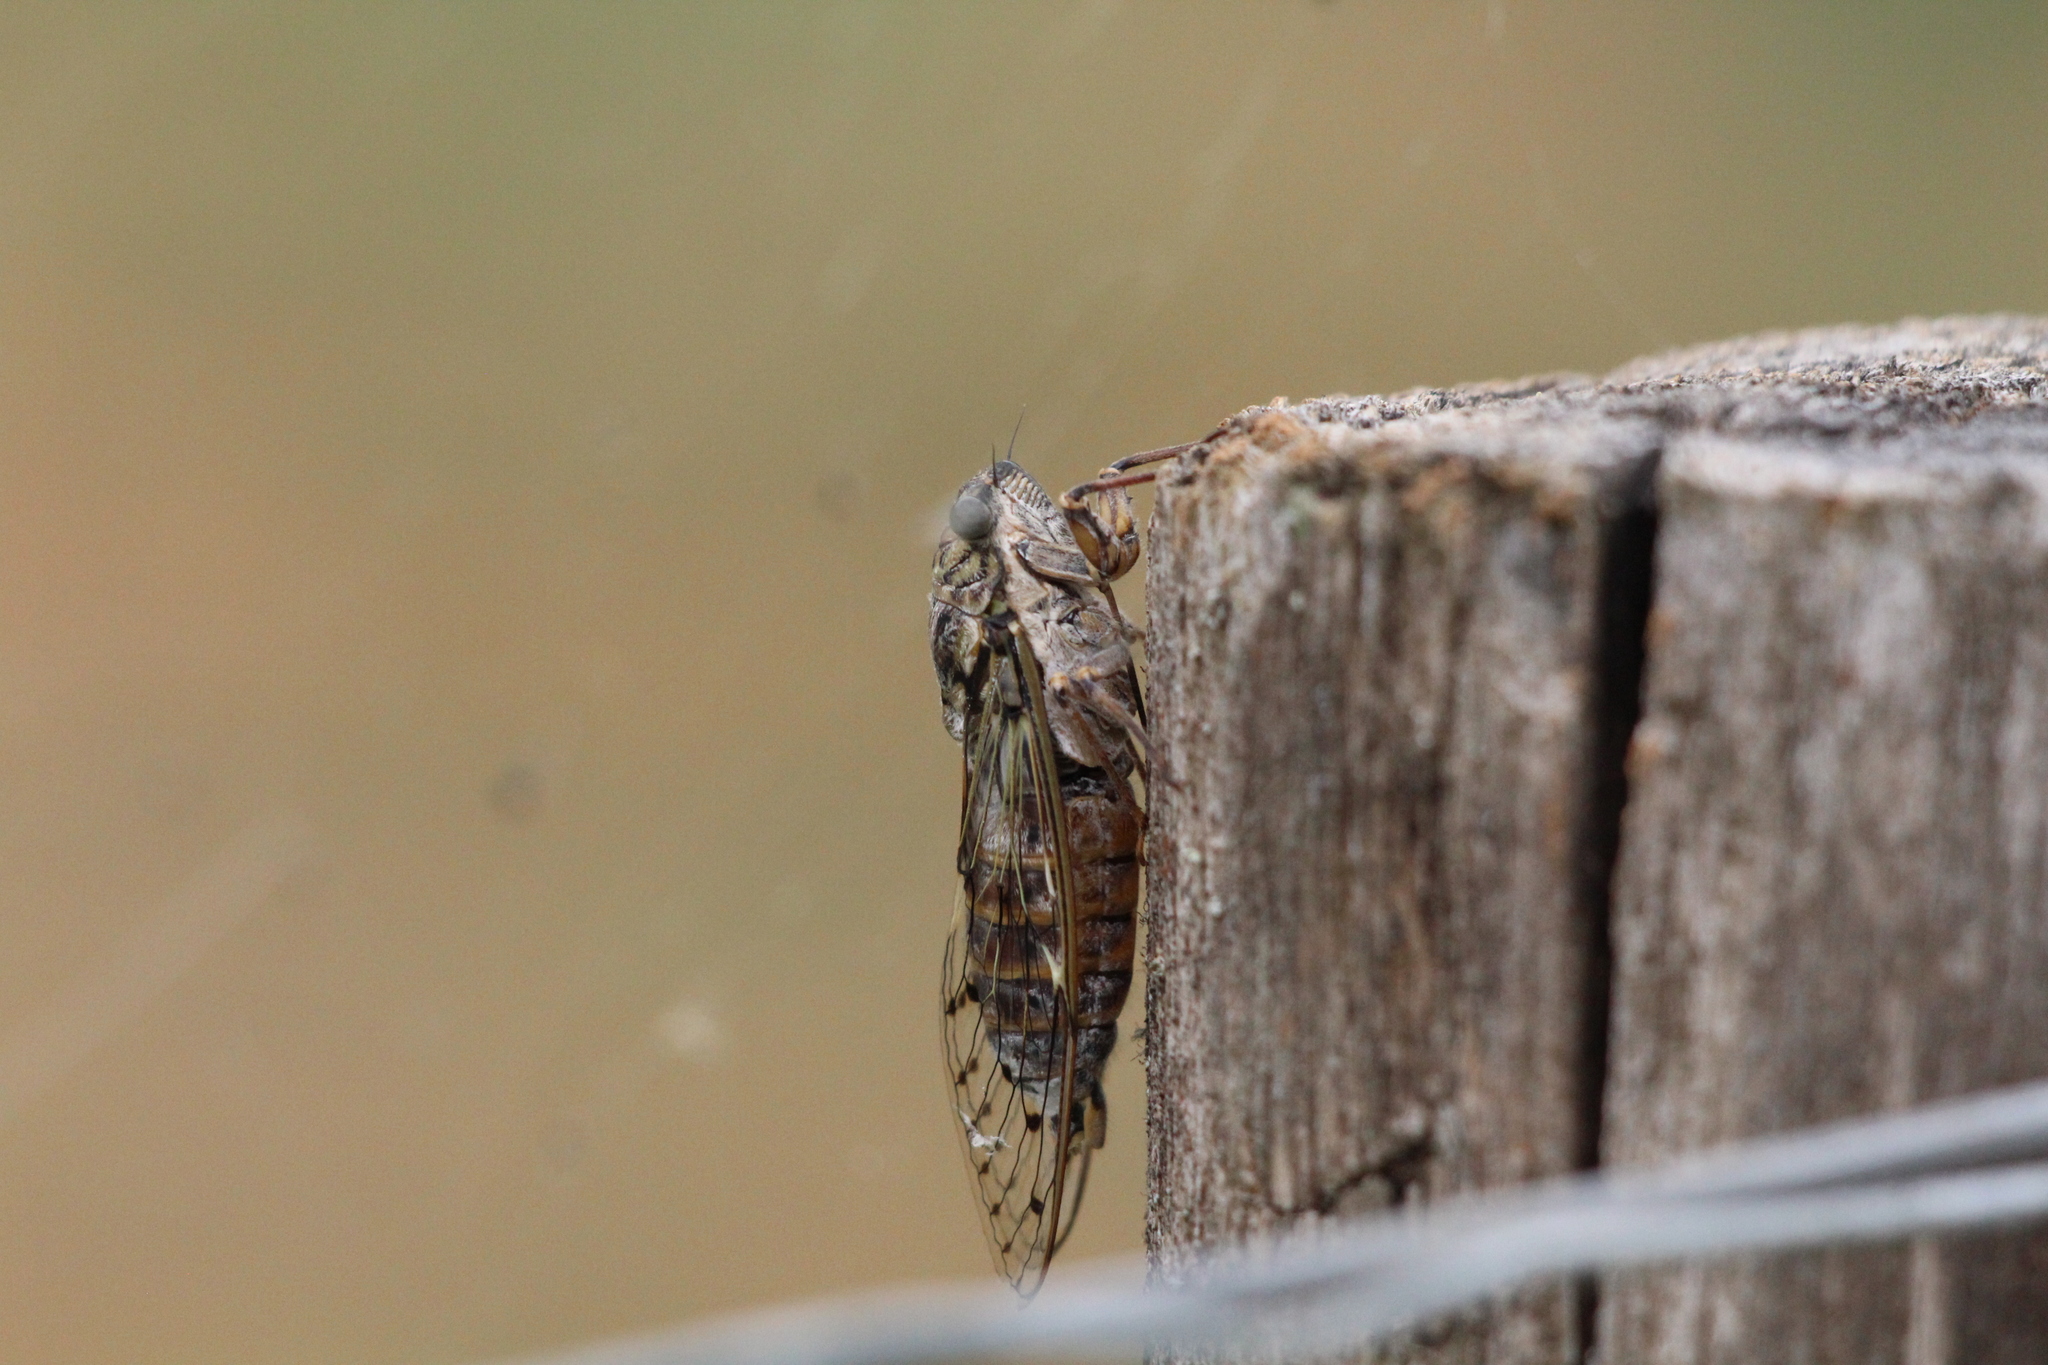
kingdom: Animalia
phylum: Arthropoda
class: Insecta
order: Hemiptera
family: Cicadidae
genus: Cicada
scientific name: Cicada orni
